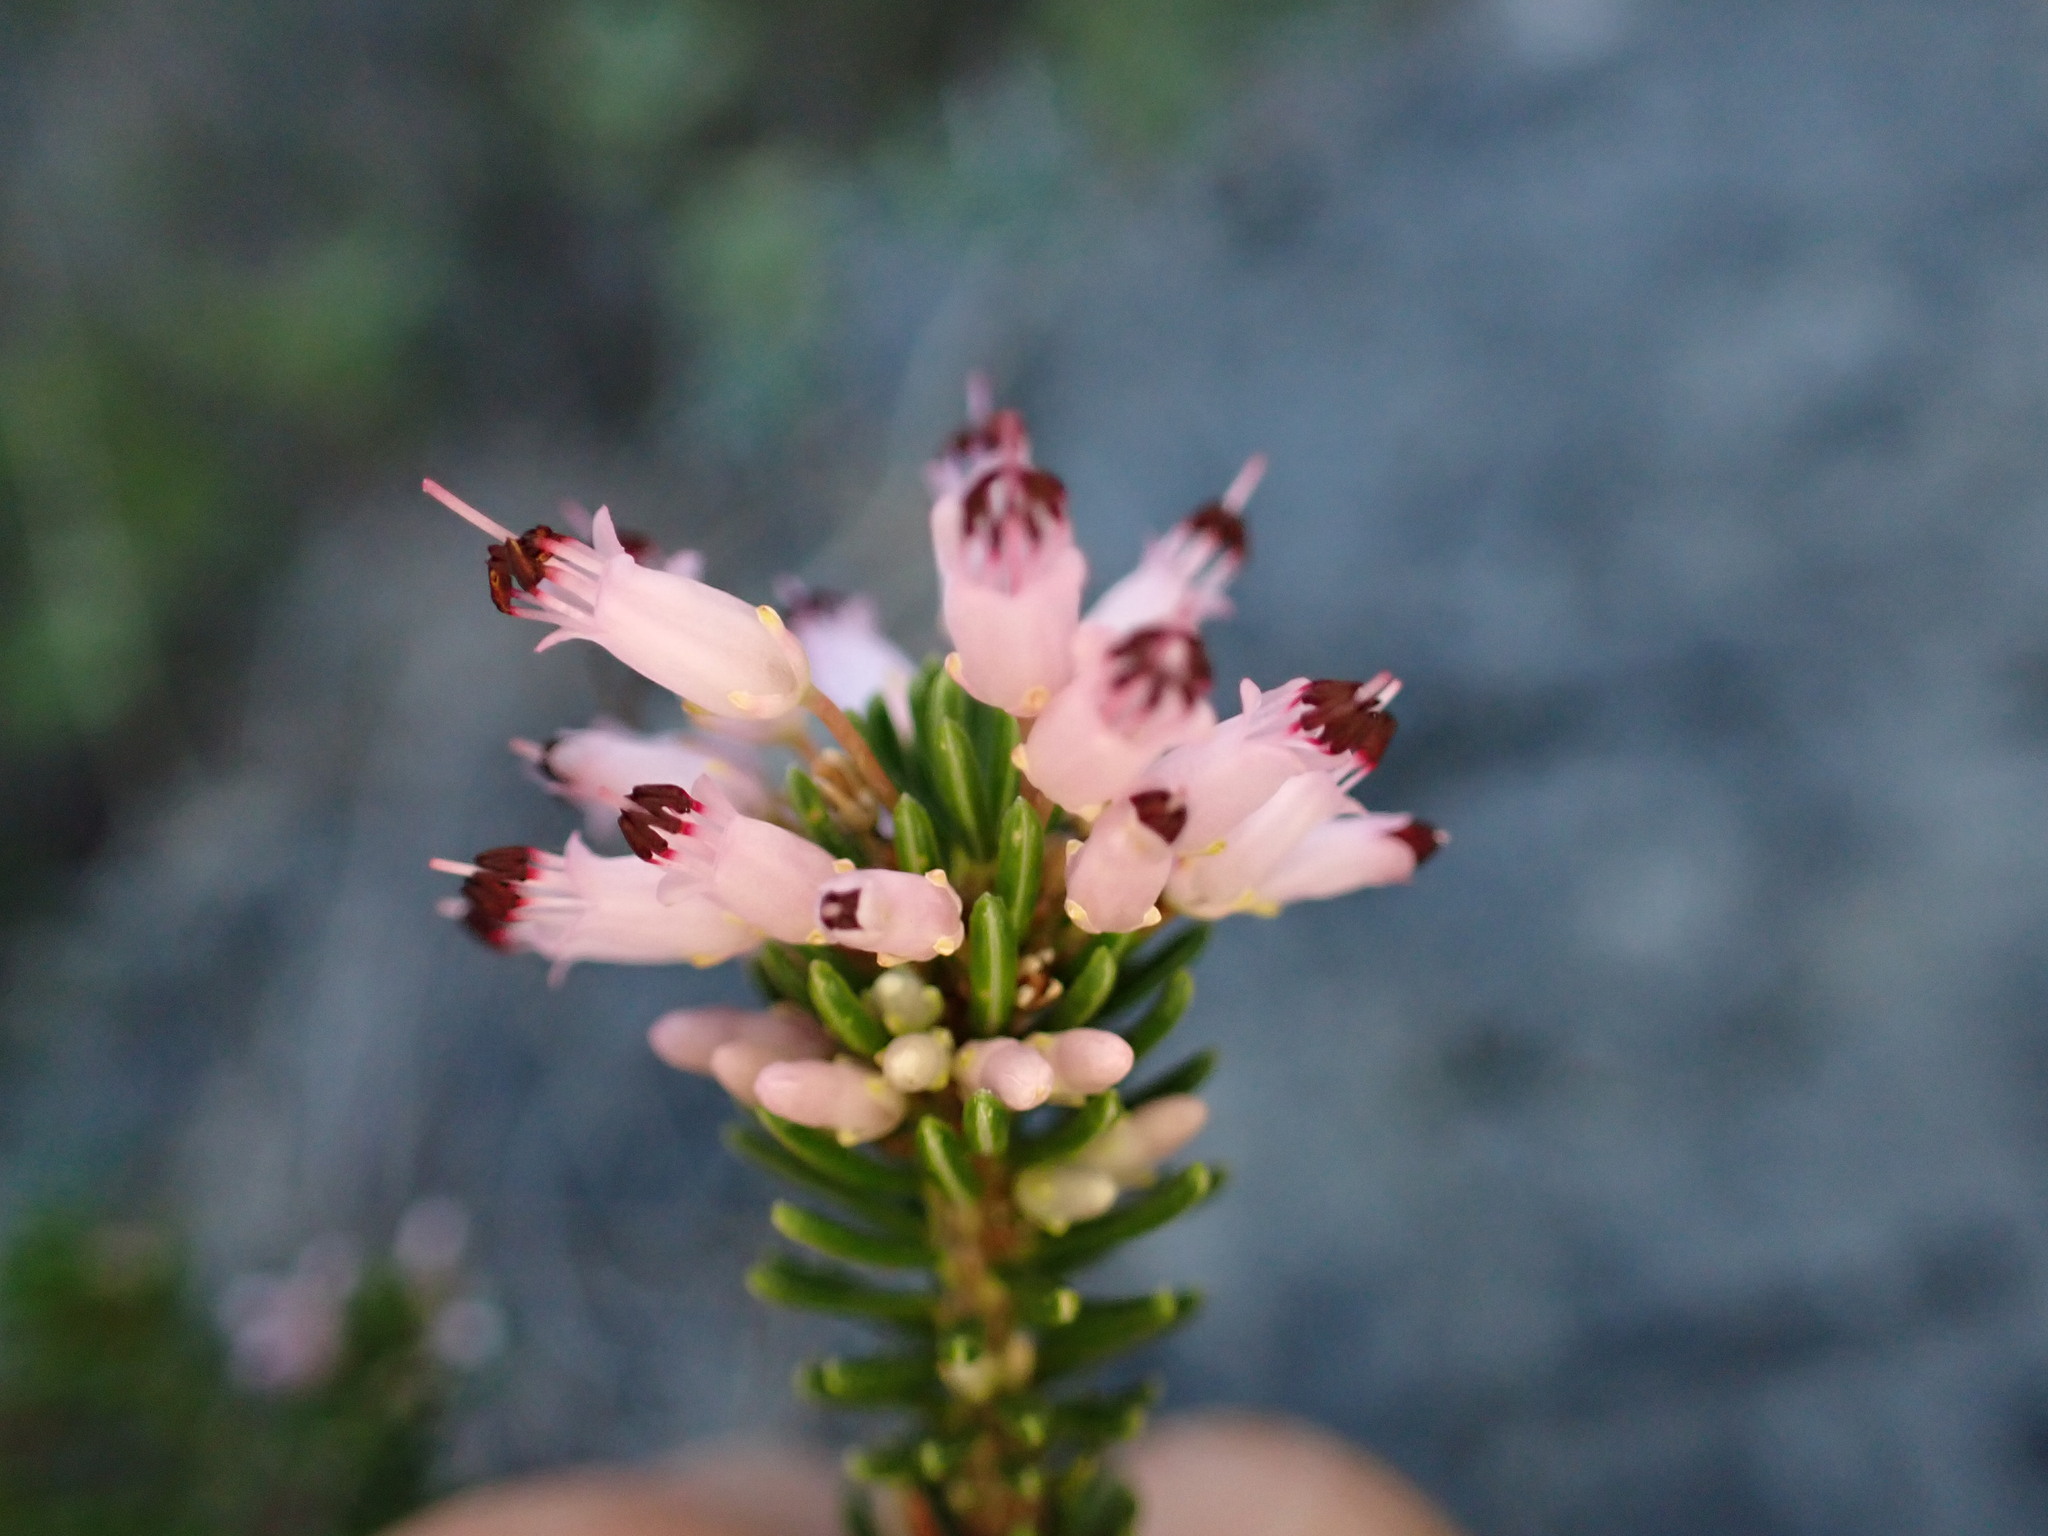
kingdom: Plantae
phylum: Tracheophyta
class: Magnoliopsida
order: Ericales
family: Ericaceae
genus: Erica
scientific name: Erica multiflora
